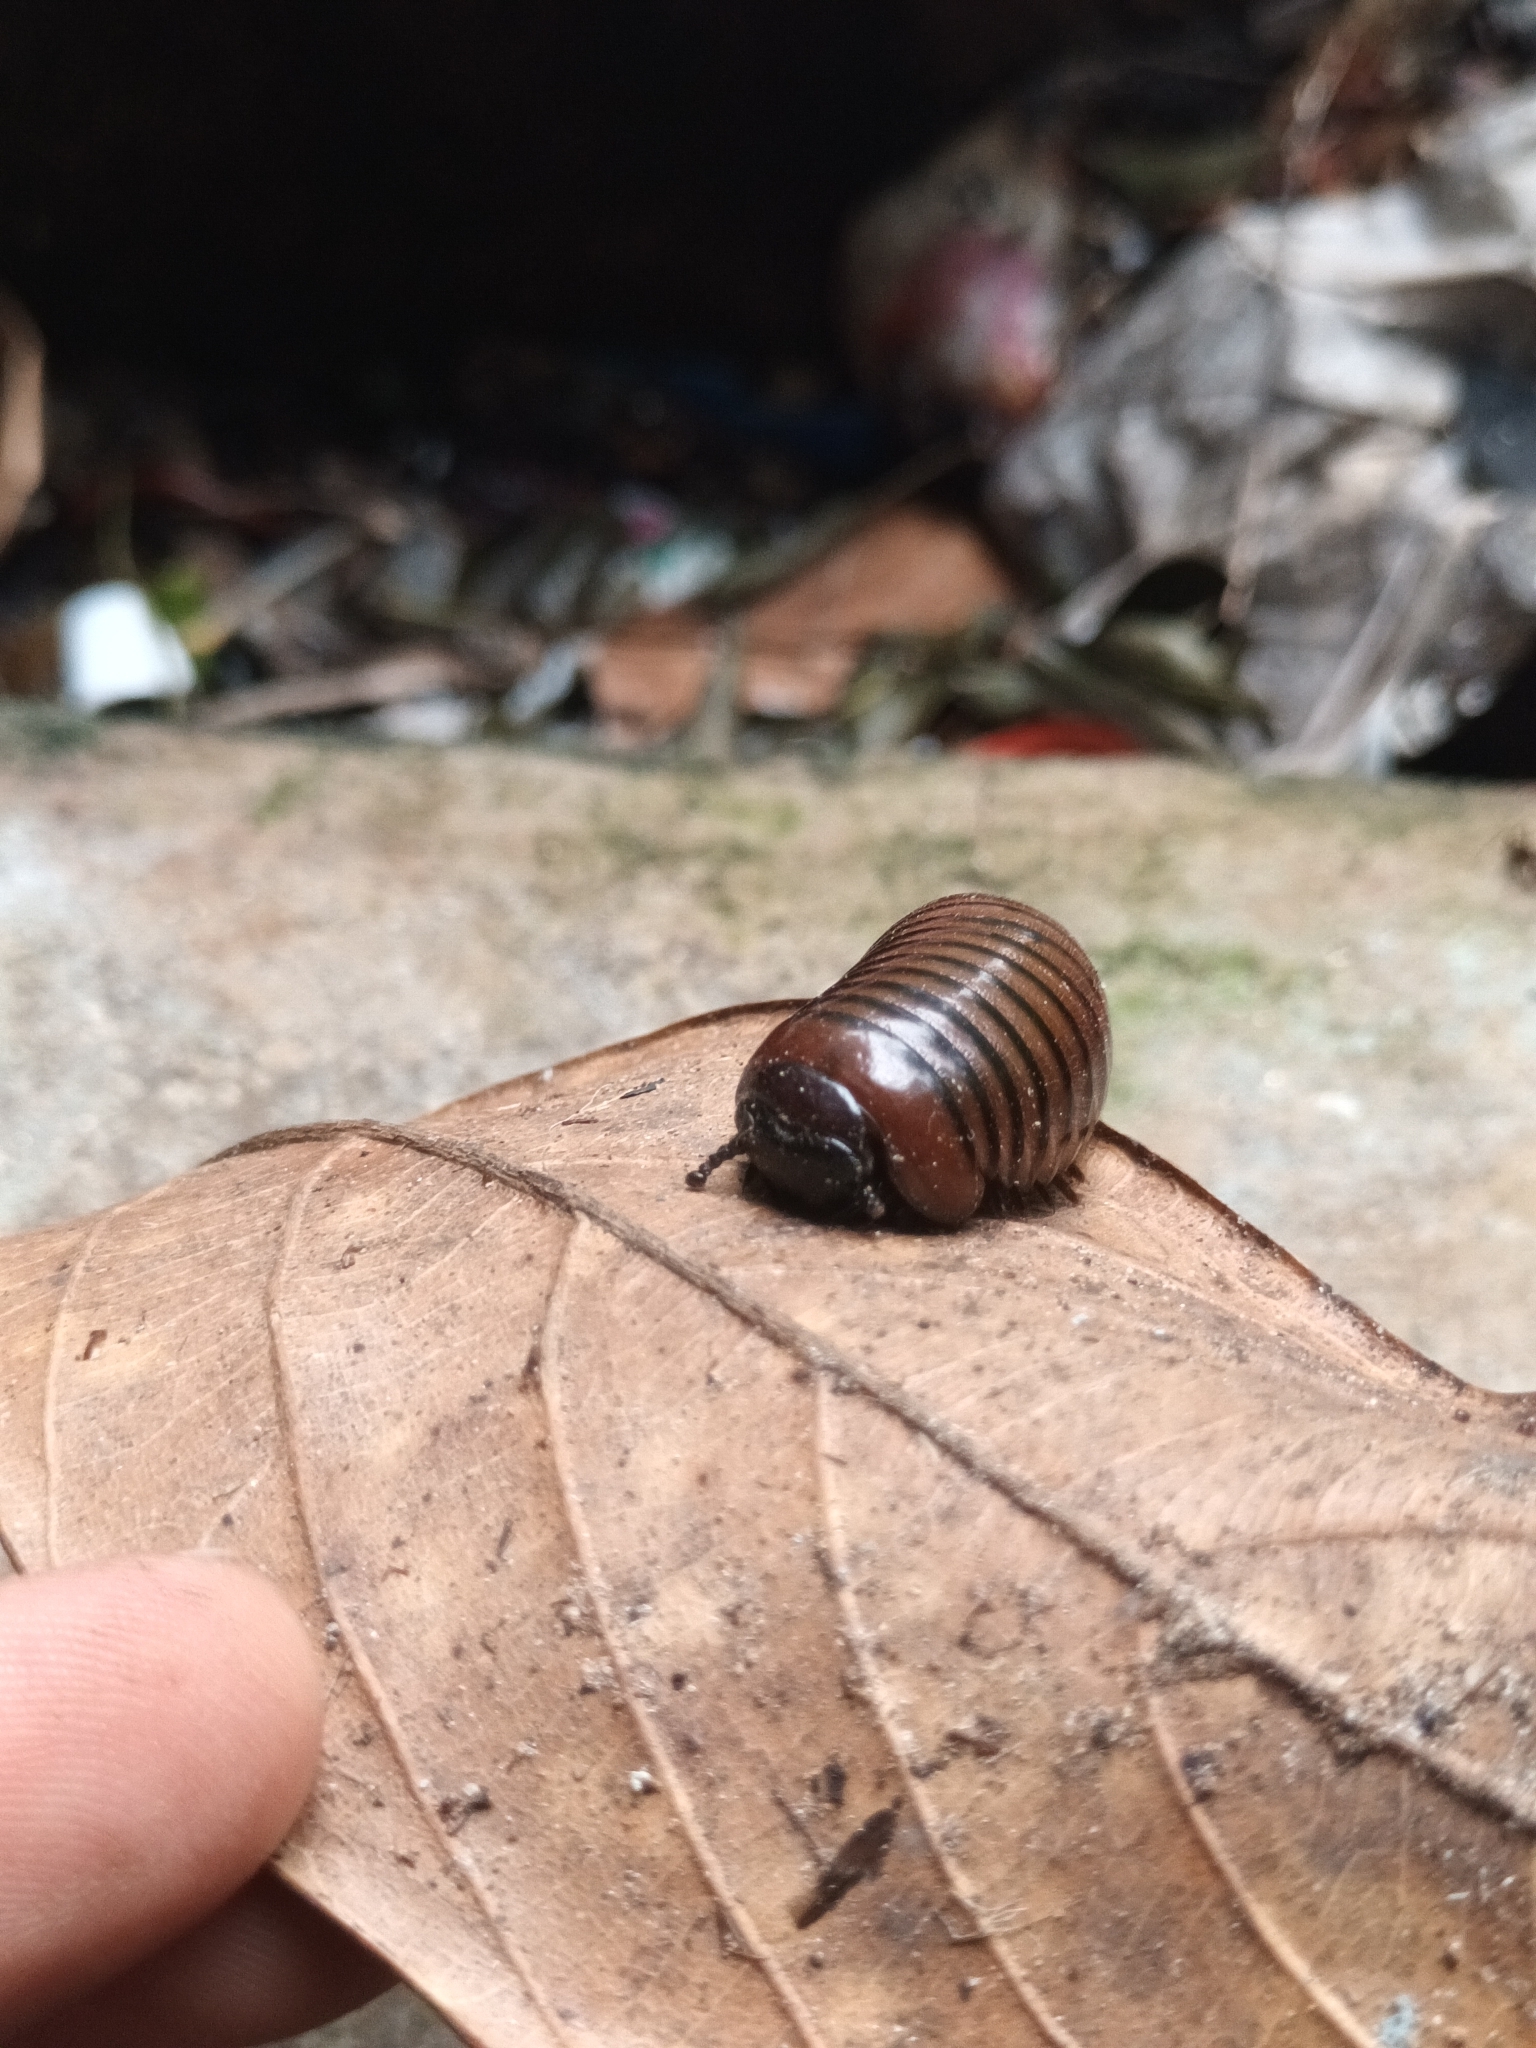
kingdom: Animalia
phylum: Arthropoda
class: Diplopoda
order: Sphaerotheriida
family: Arthrosphaeridae
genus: Arthrosphaera
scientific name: Arthrosphaera davisoni
